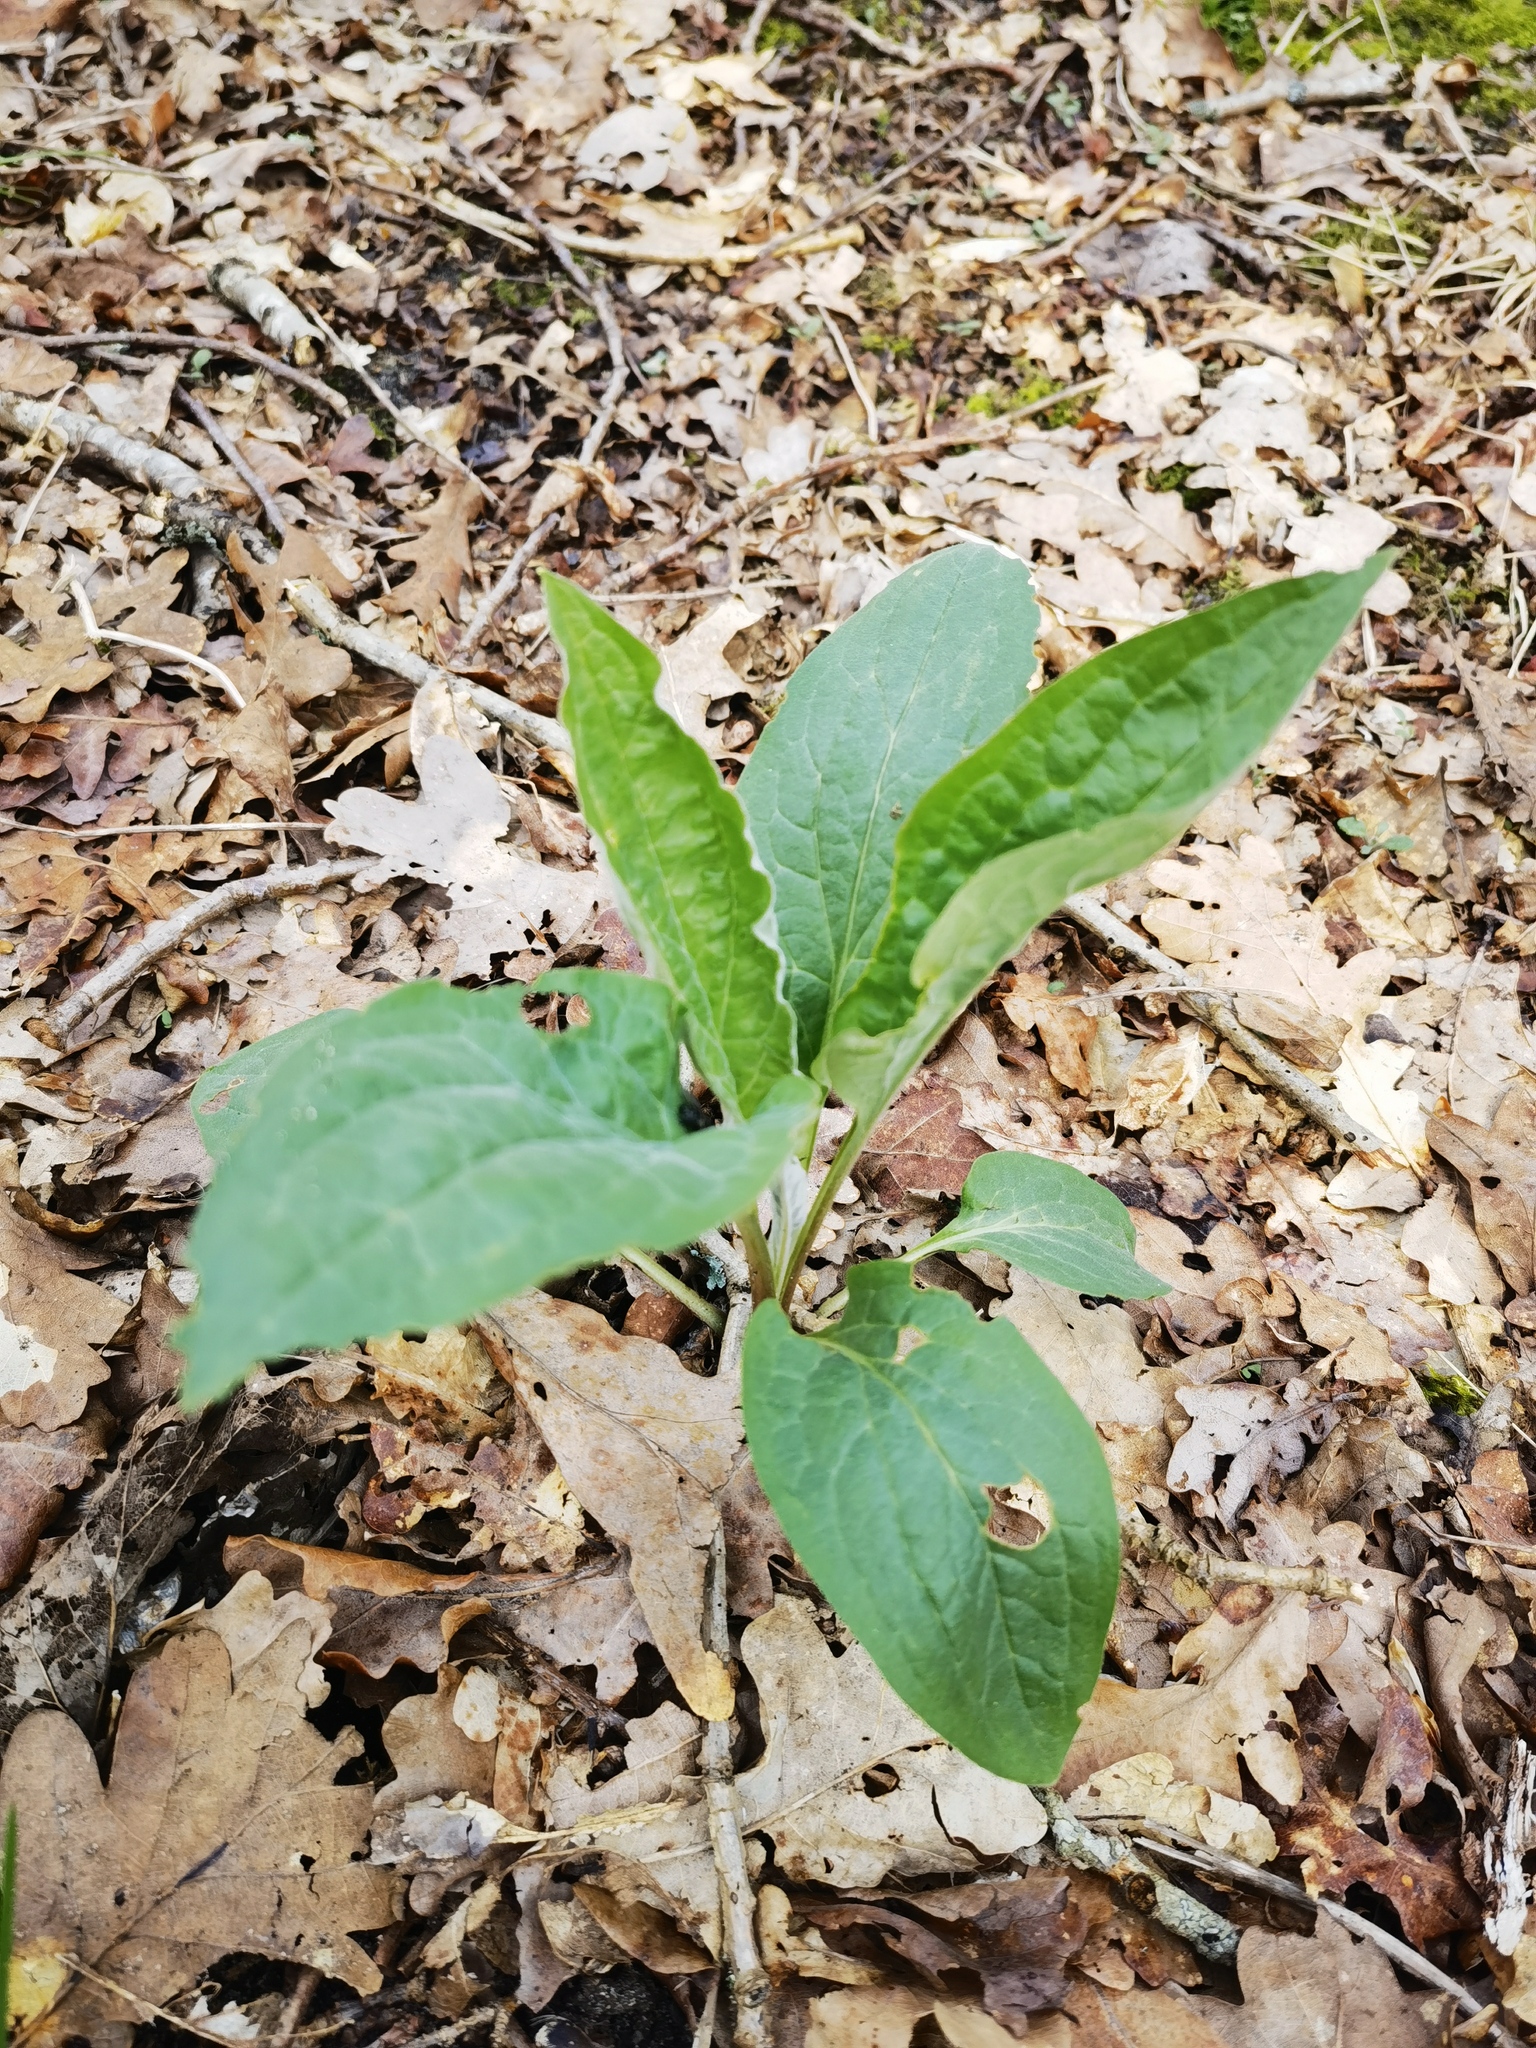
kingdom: Plantae
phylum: Tracheophyta
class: Magnoliopsida
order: Boraginales
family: Boraginaceae
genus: Cynoglossum
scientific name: Cynoglossum officinale
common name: Hound's-tongue
